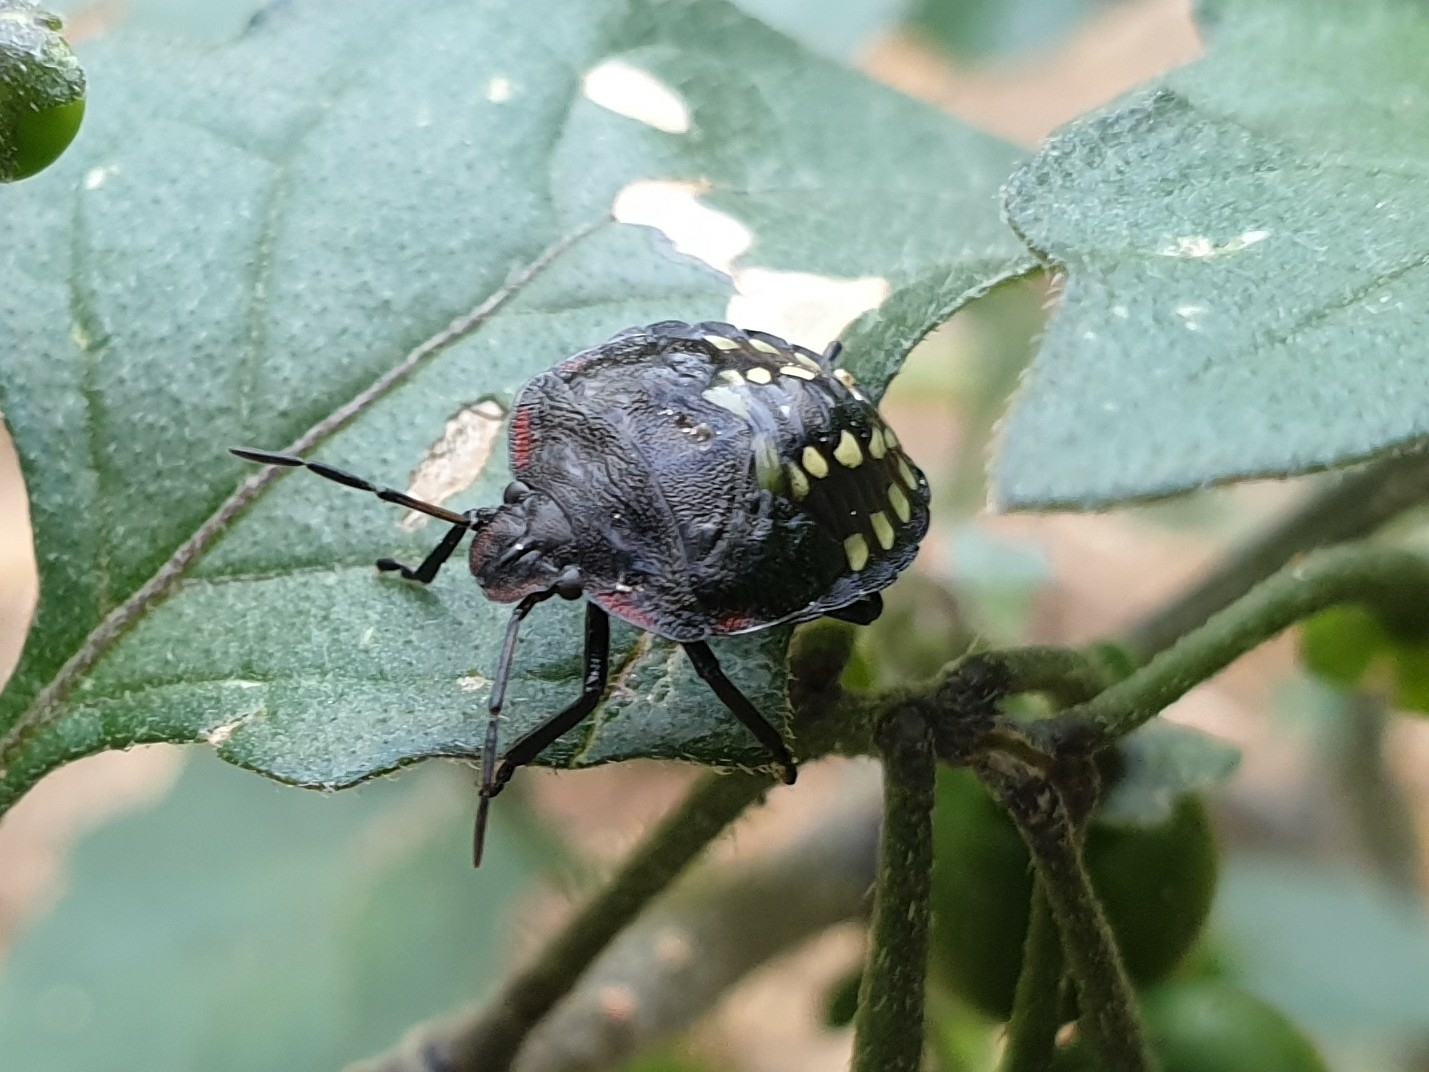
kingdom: Animalia
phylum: Arthropoda
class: Insecta
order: Hemiptera
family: Pentatomidae
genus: Nezara
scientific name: Nezara viridula
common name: Southern green stink bug
